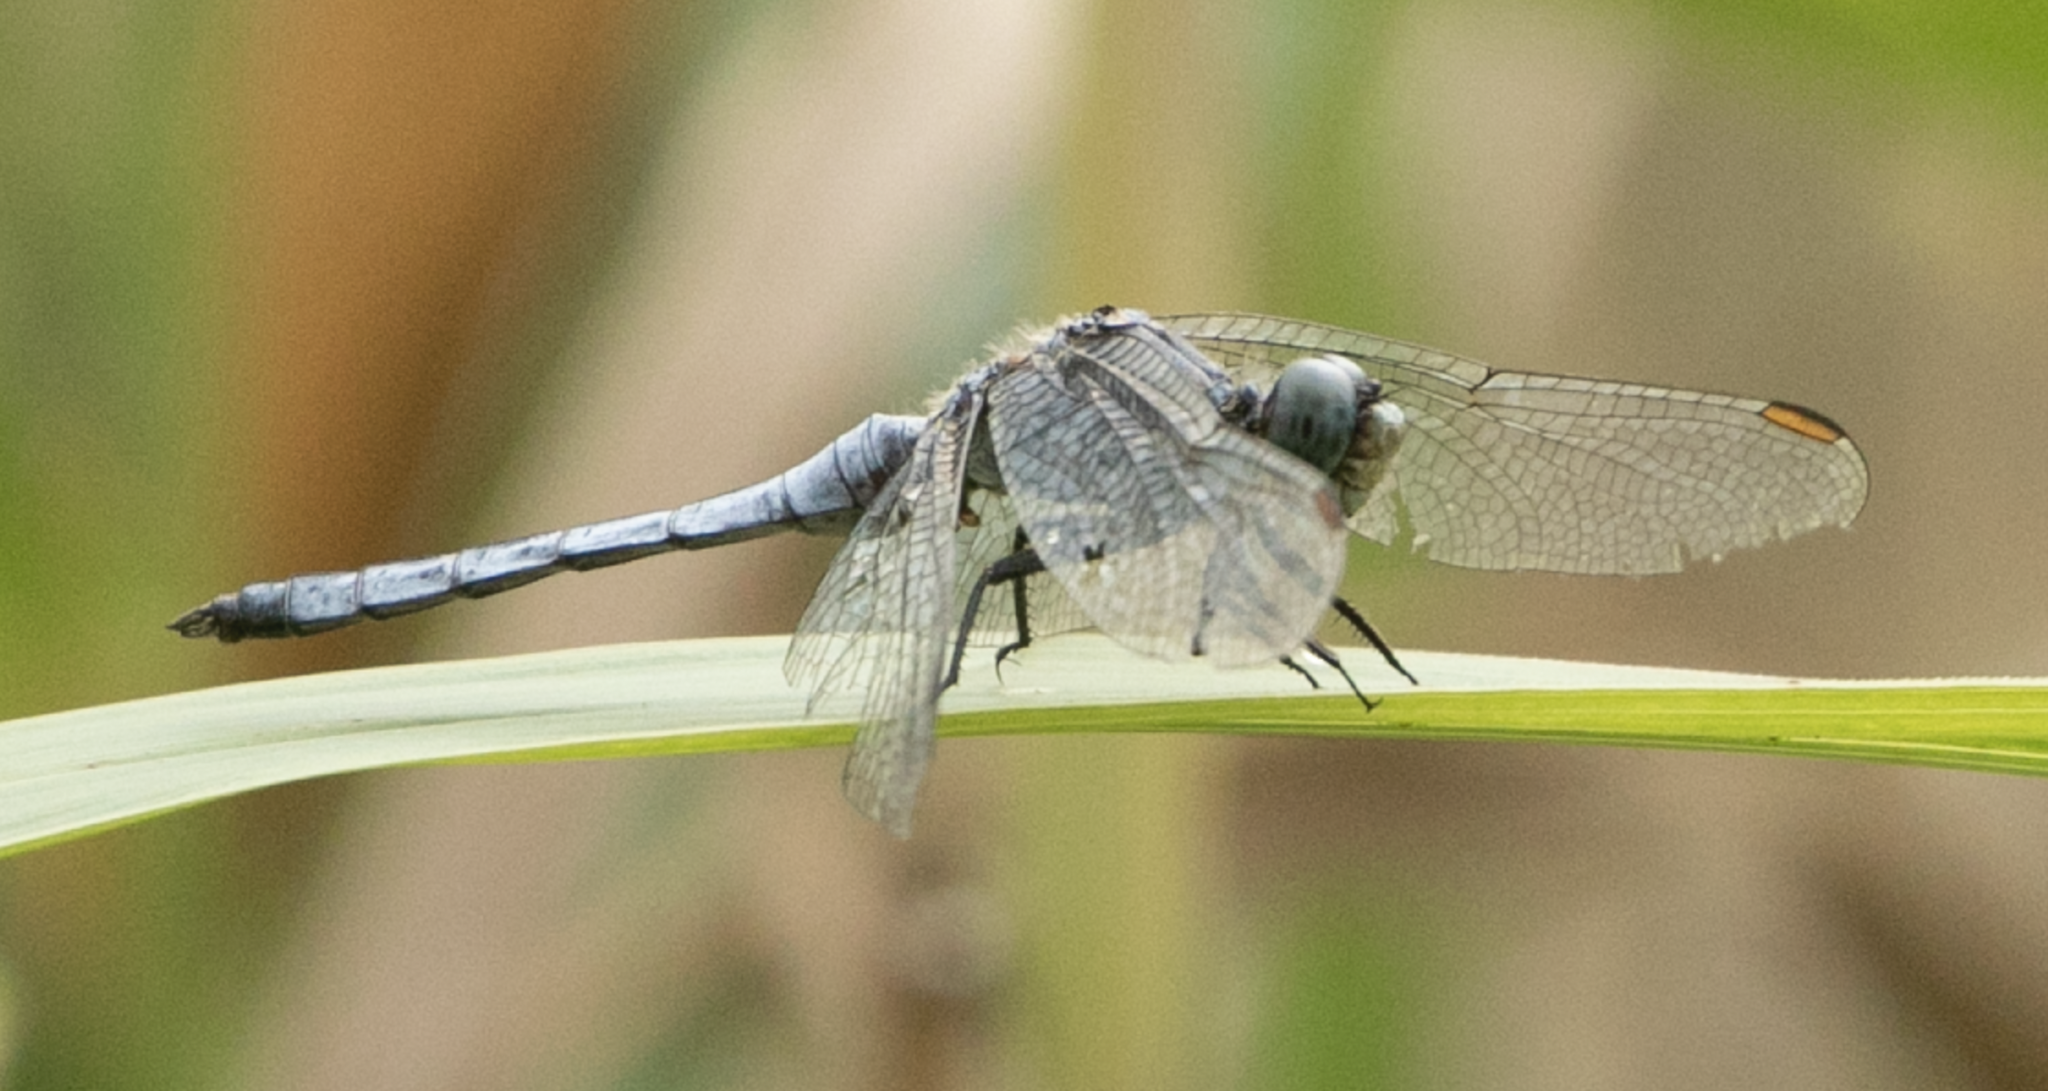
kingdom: Animalia
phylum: Arthropoda
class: Insecta
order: Odonata
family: Libellulidae
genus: Orthetrum
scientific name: Orthetrum coerulescens
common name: Keeled skimmer
